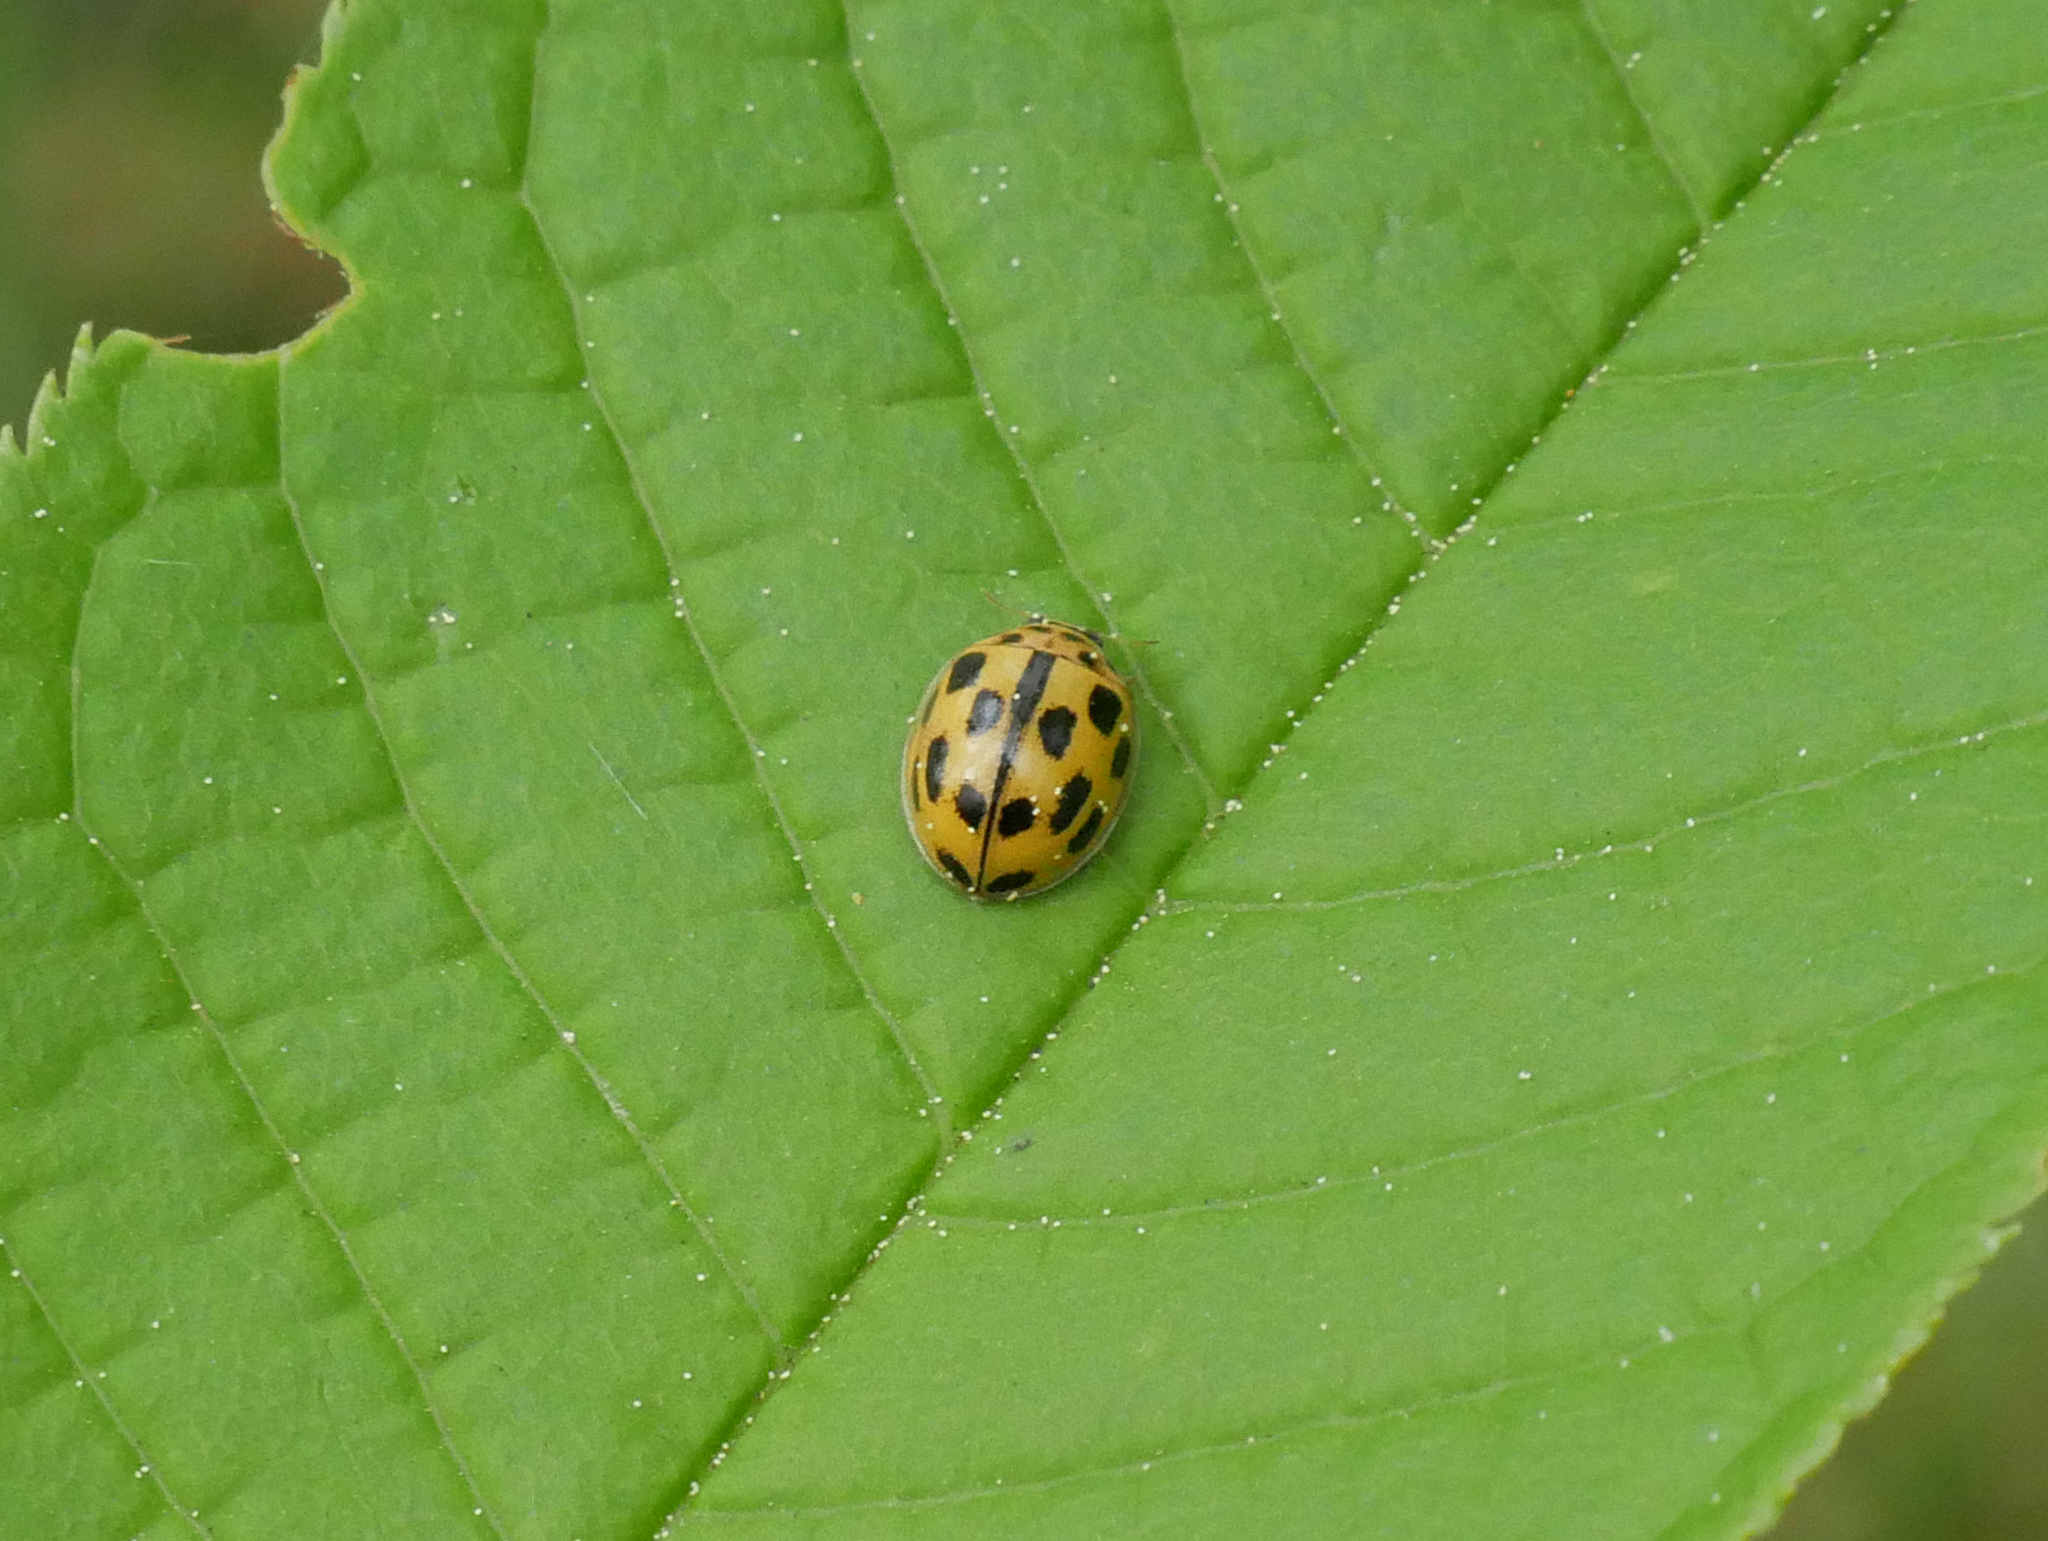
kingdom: Animalia
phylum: Arthropoda
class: Insecta
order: Coleoptera
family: Coccinellidae
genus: Propylaea
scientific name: Propylaea quatuordecimpunctata
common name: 14-spotted ladybird beetle
